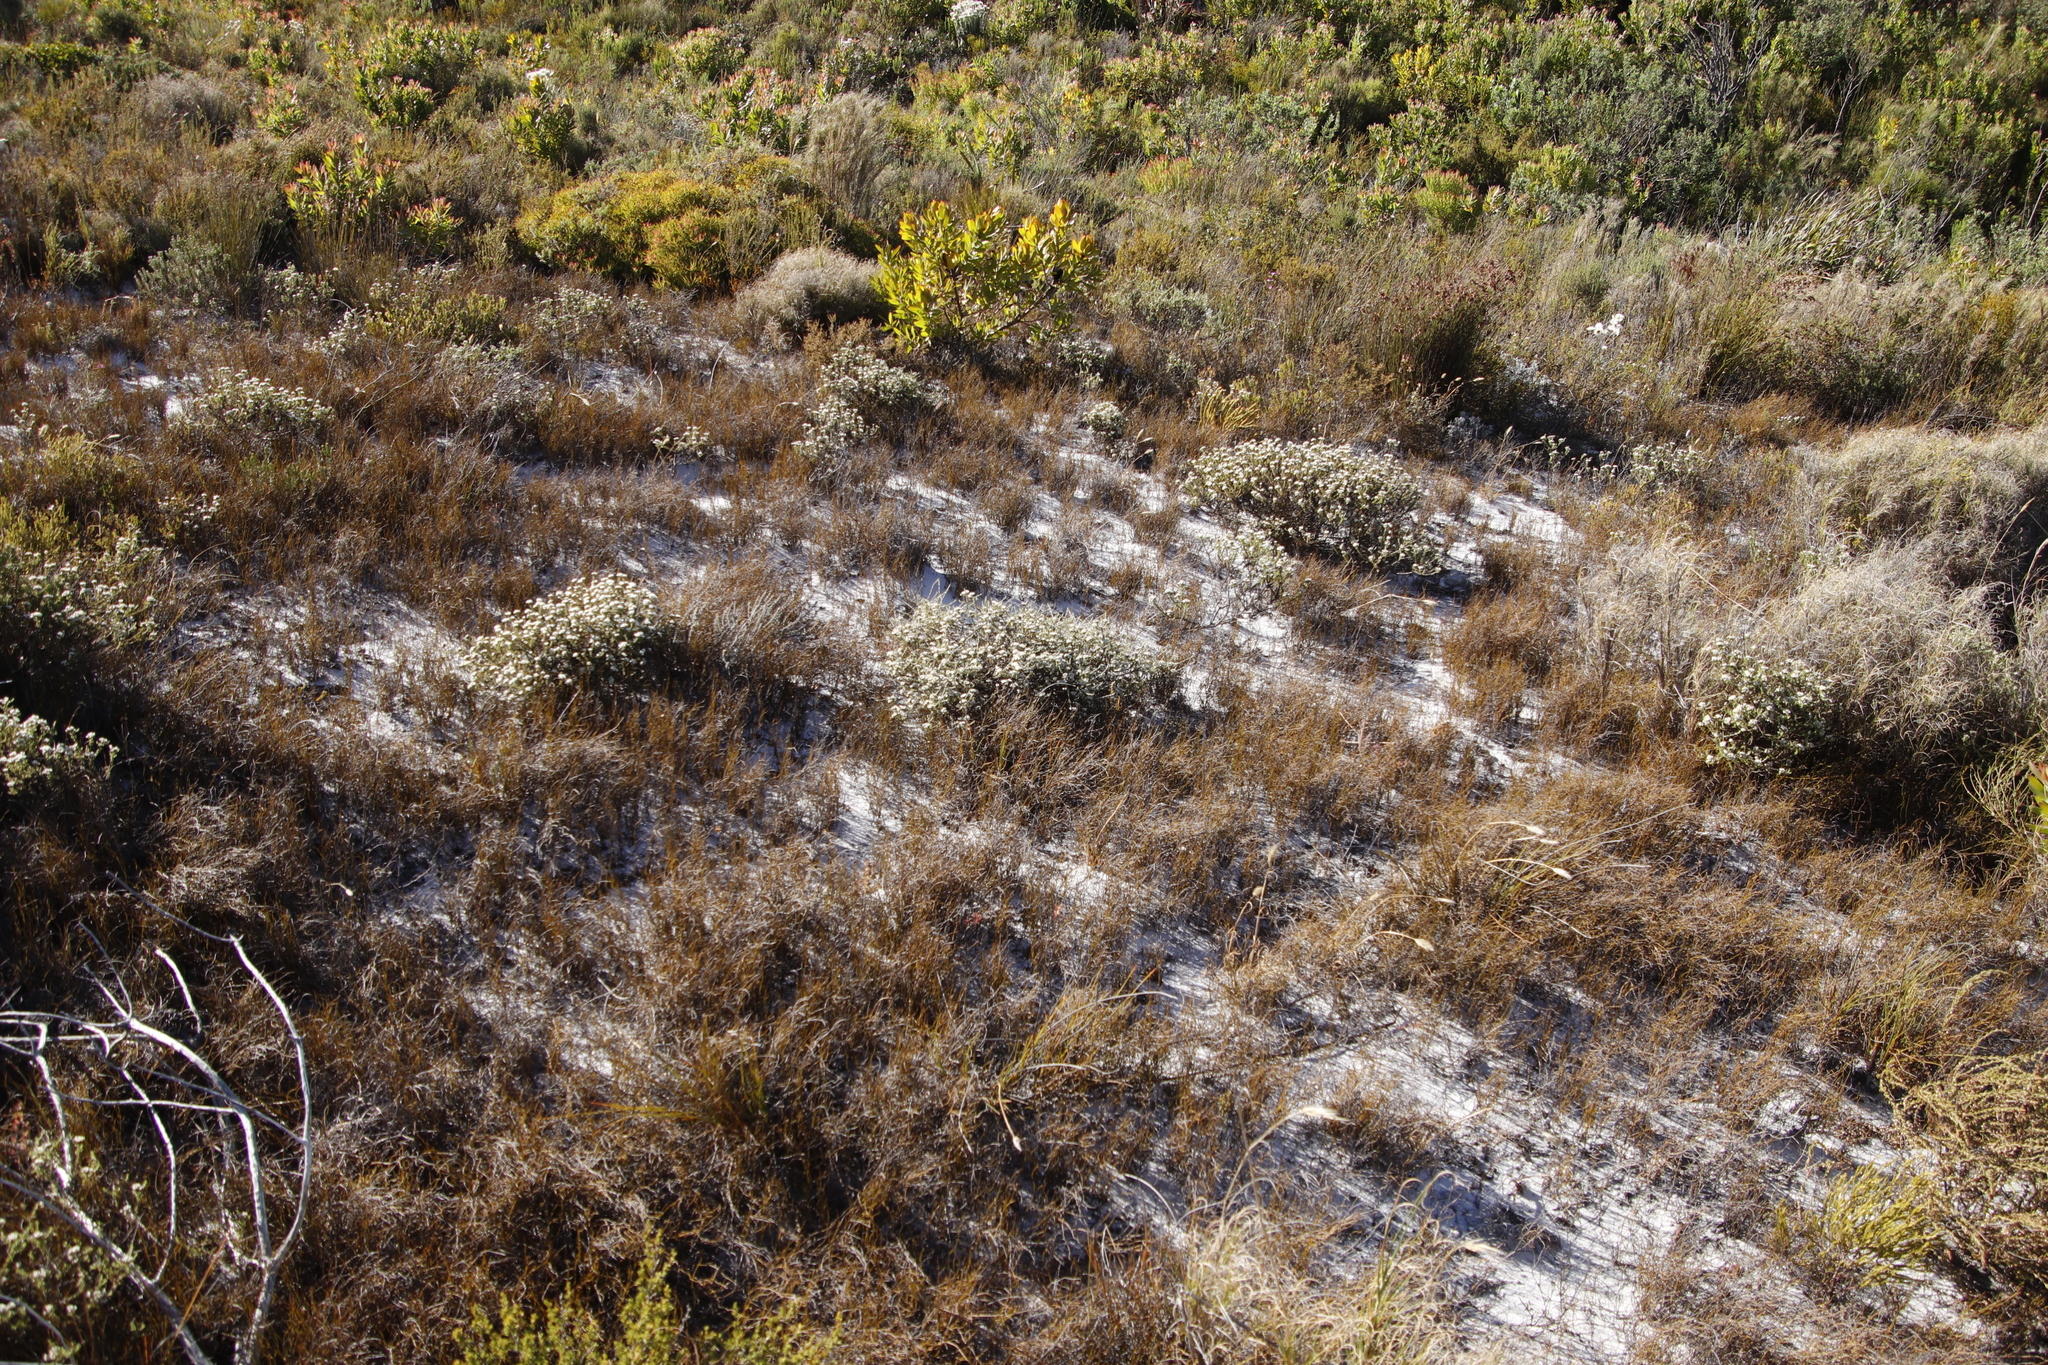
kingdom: Plantae
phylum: Tracheophyta
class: Magnoliopsida
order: Asterales
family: Asteraceae
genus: Metalasia
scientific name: Metalasia brevifolia
